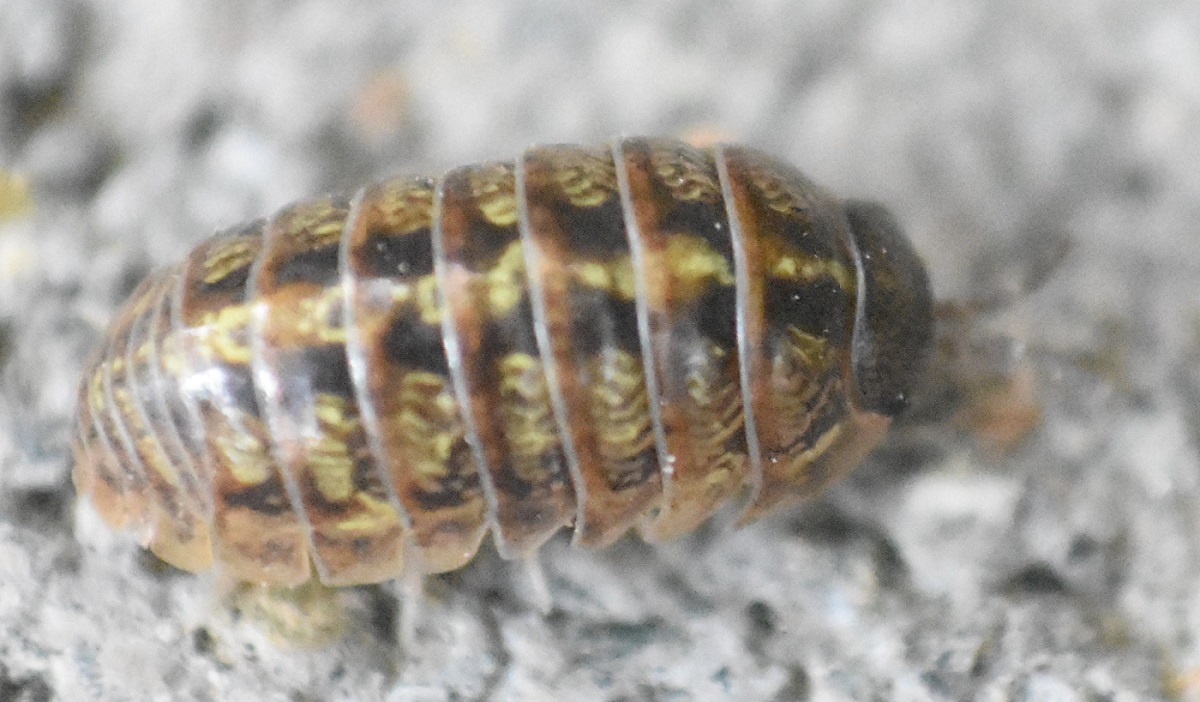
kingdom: Animalia
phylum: Arthropoda
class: Malacostraca
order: Isopoda
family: Armadillidiidae
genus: Armadillidium
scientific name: Armadillidium vulgare
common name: Common pill woodlouse
